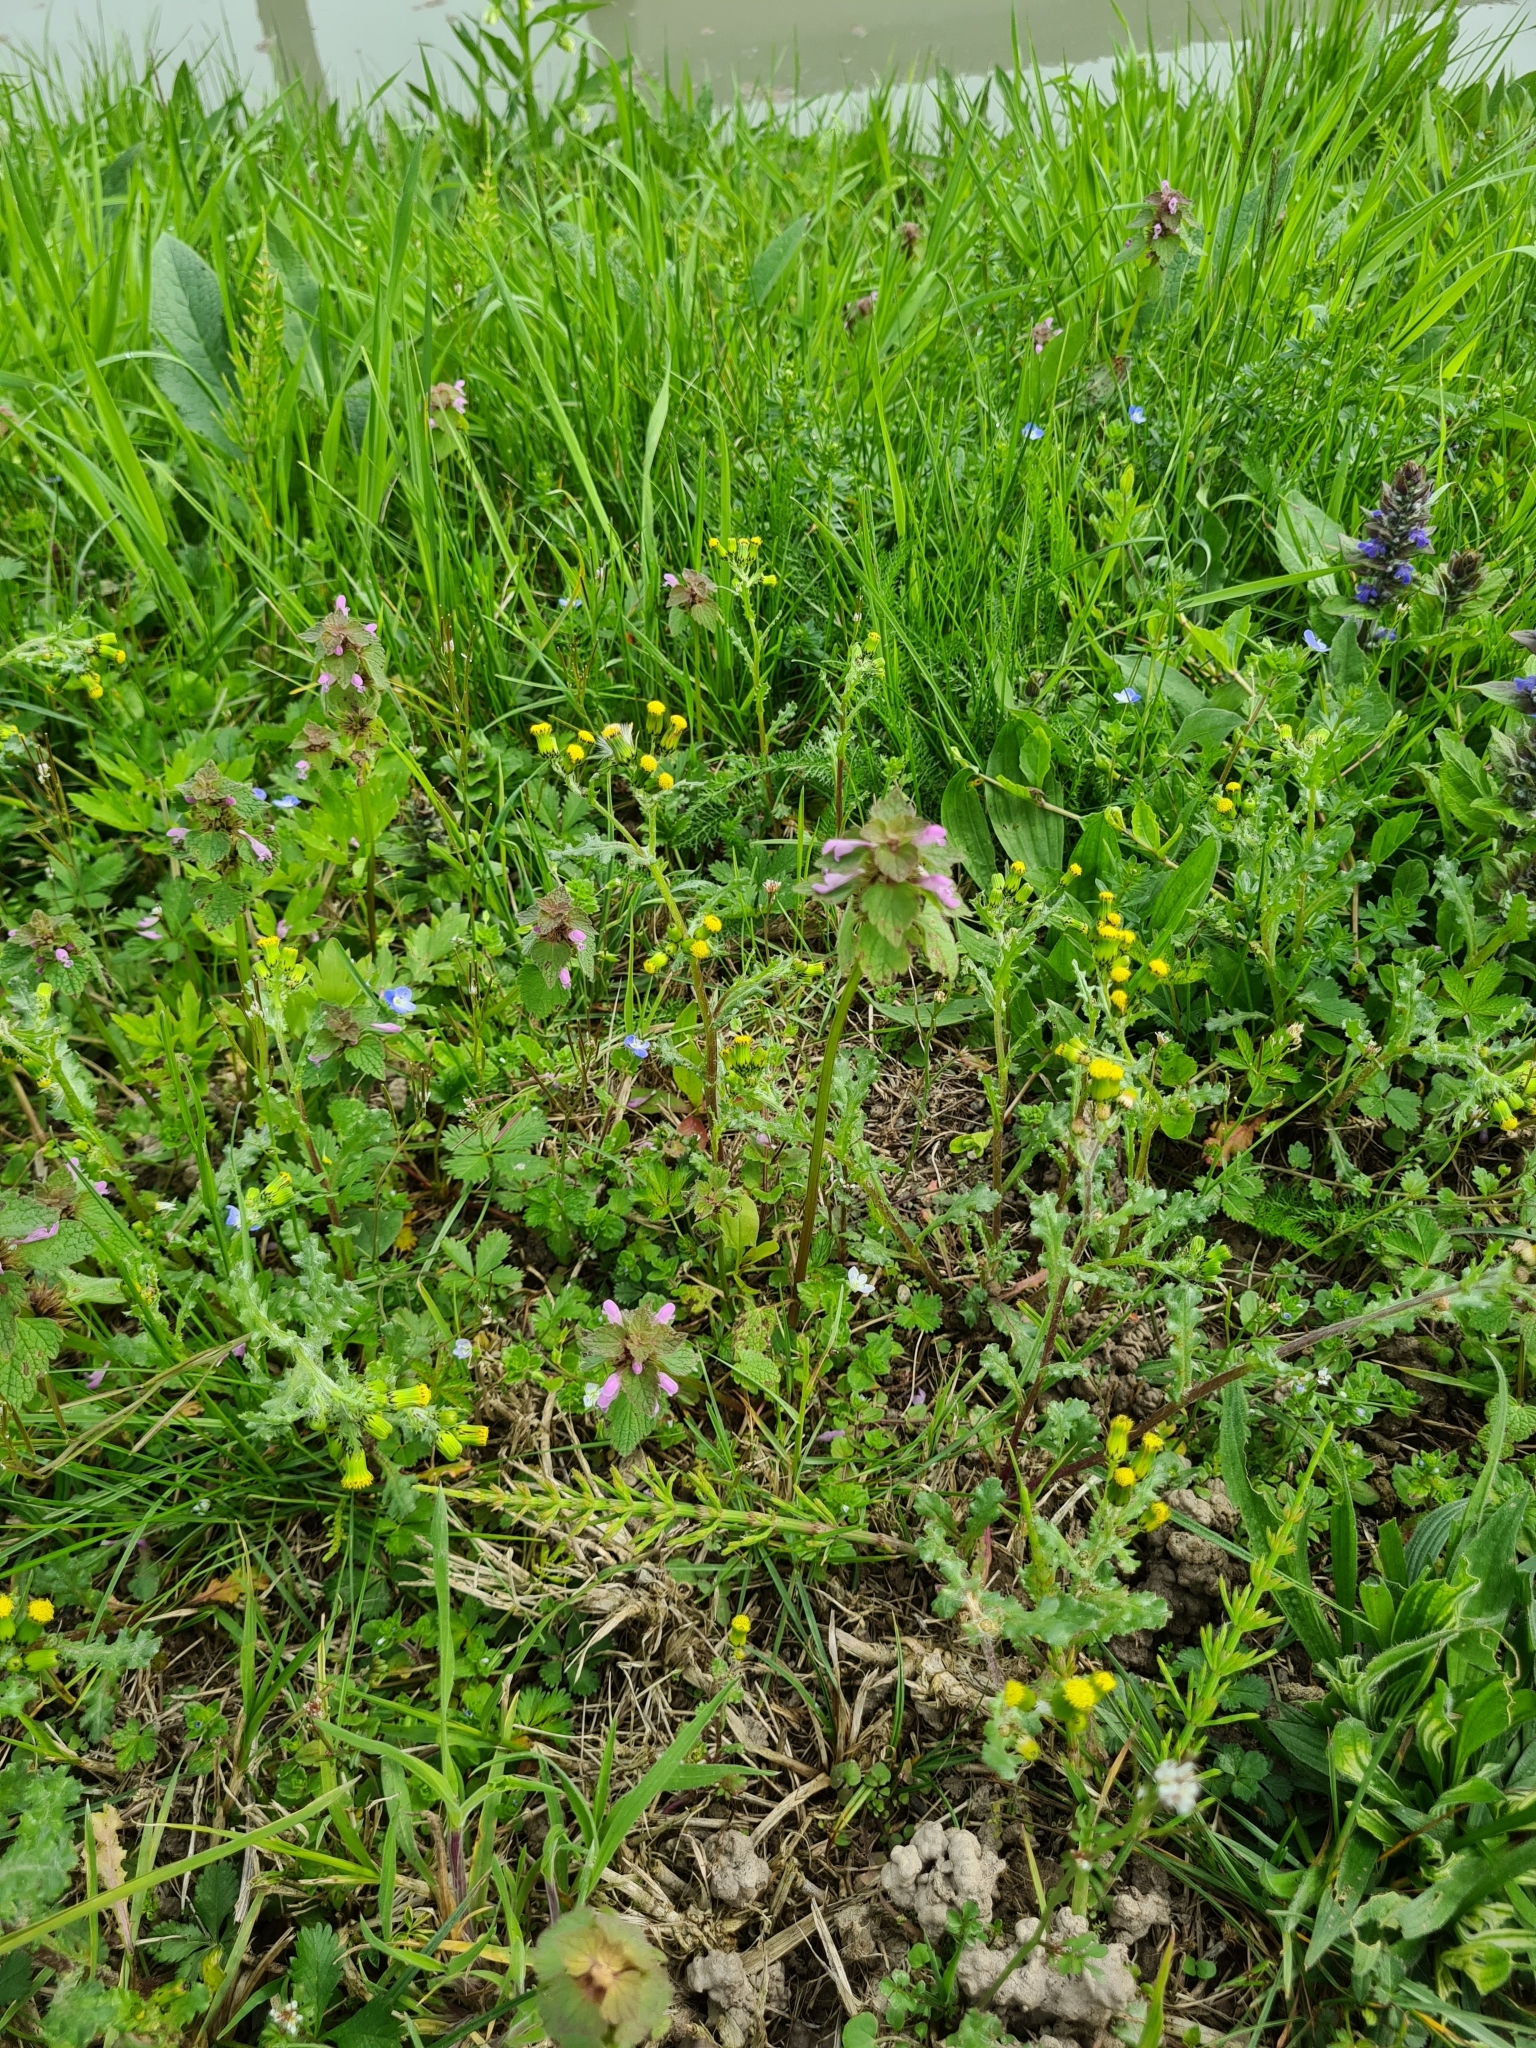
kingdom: Plantae
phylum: Tracheophyta
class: Magnoliopsida
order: Lamiales
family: Lamiaceae
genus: Lamium
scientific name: Lamium purpureum
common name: Red dead-nettle
